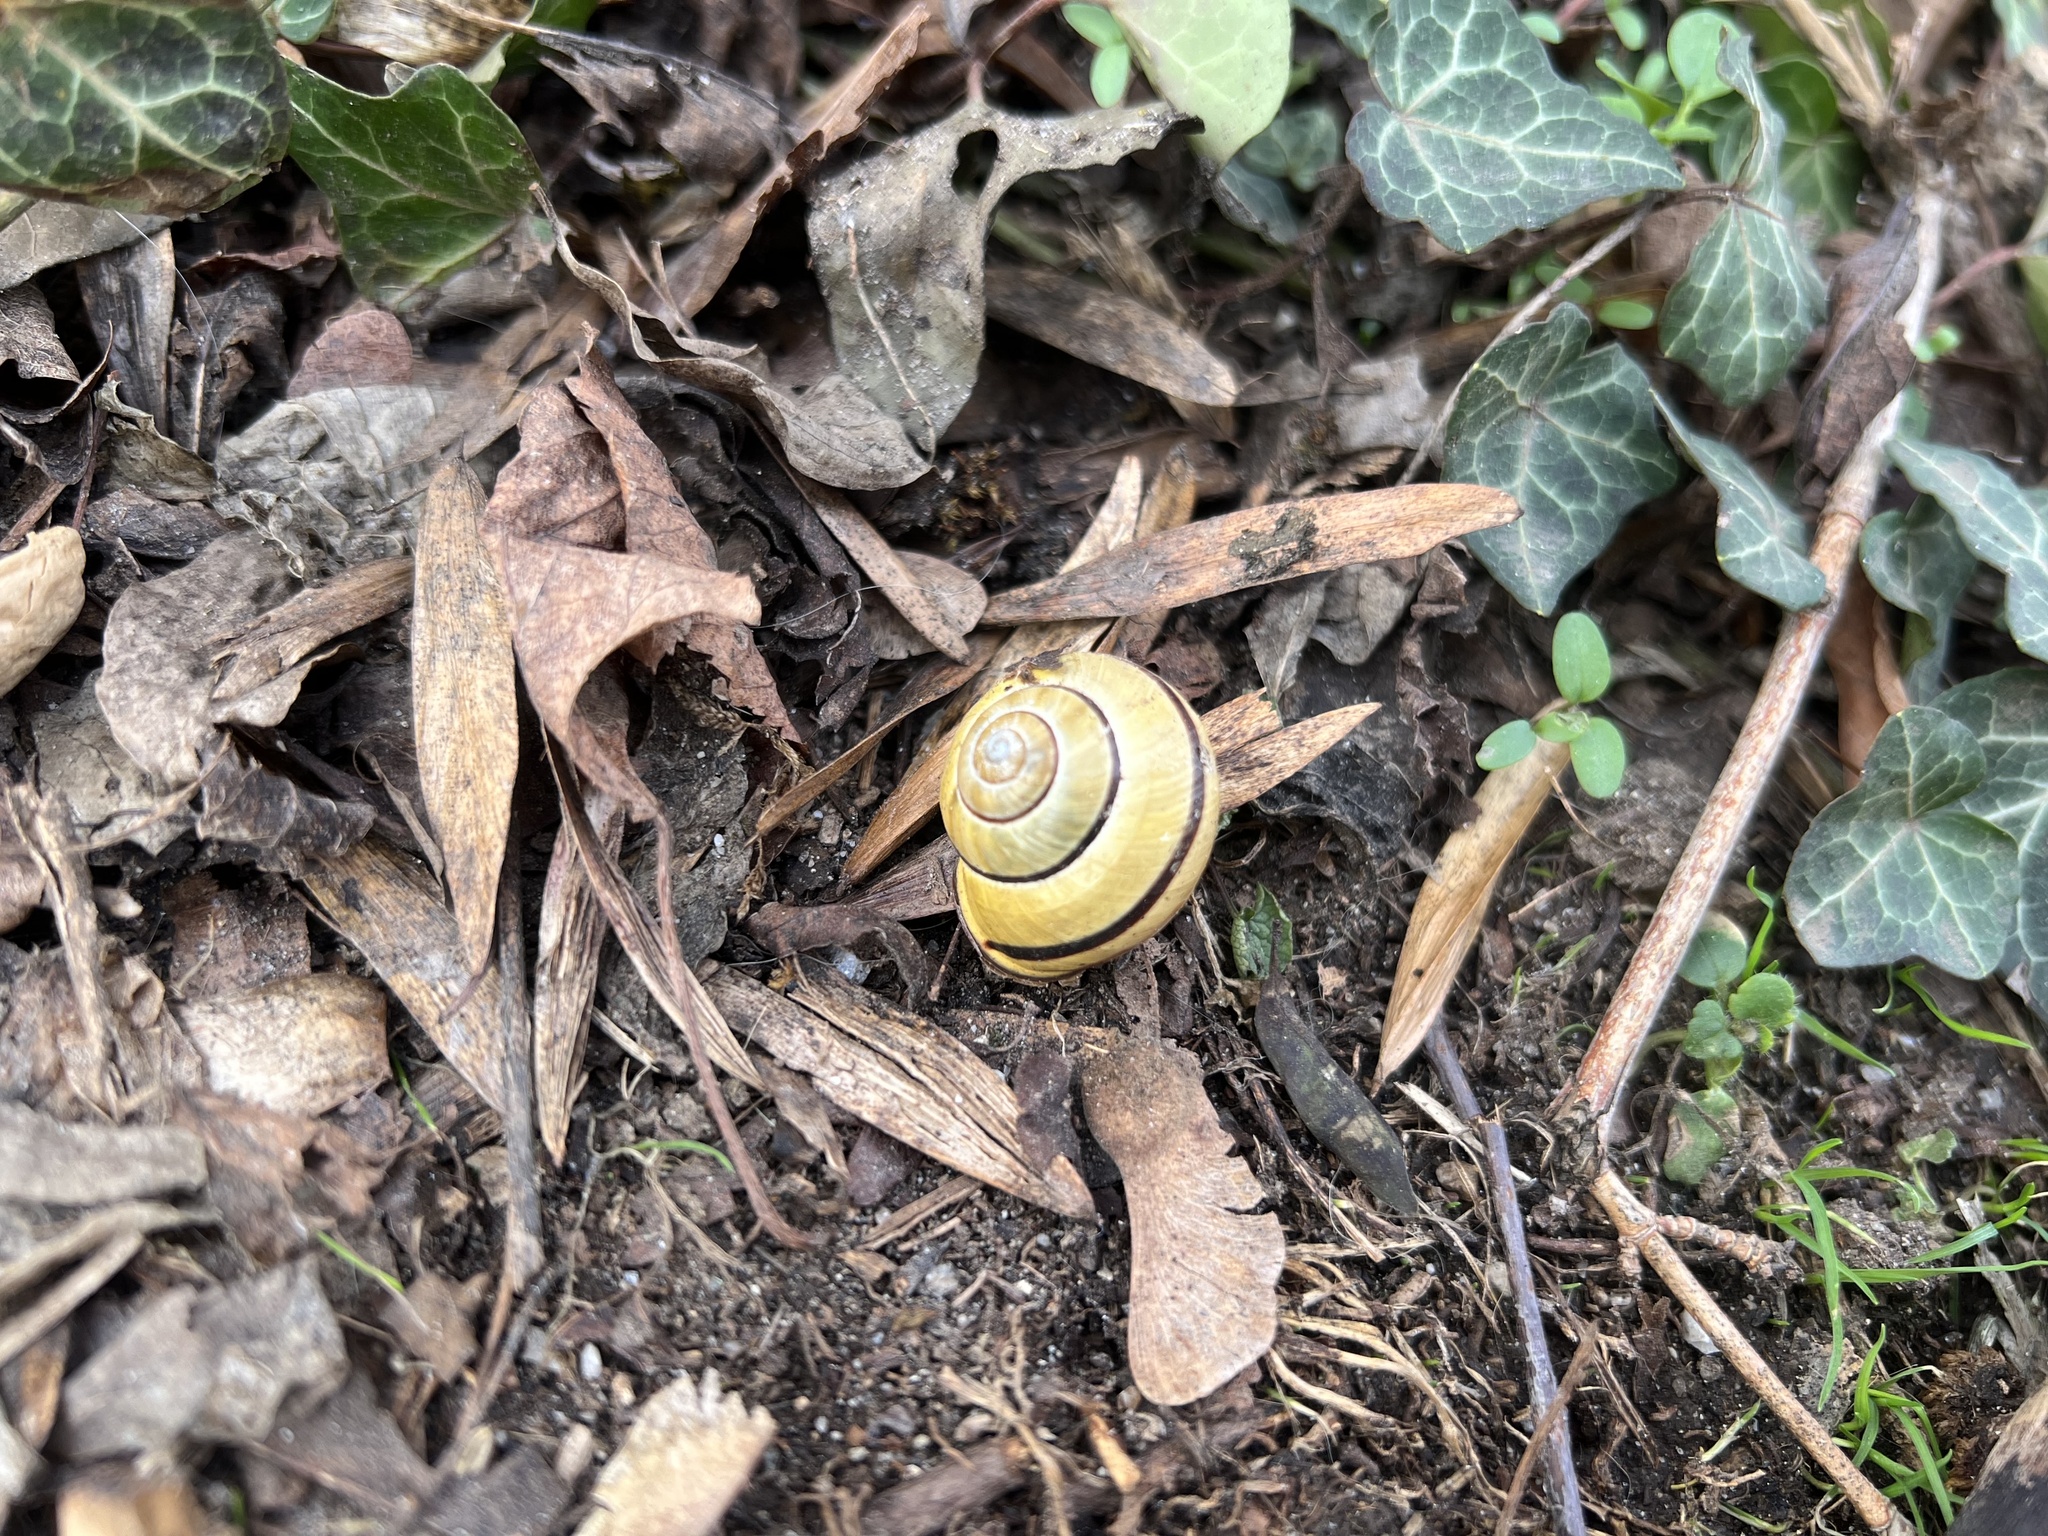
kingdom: Animalia
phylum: Mollusca
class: Gastropoda
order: Stylommatophora
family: Helicidae
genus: Cepaea
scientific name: Cepaea nemoralis
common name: Grovesnail
